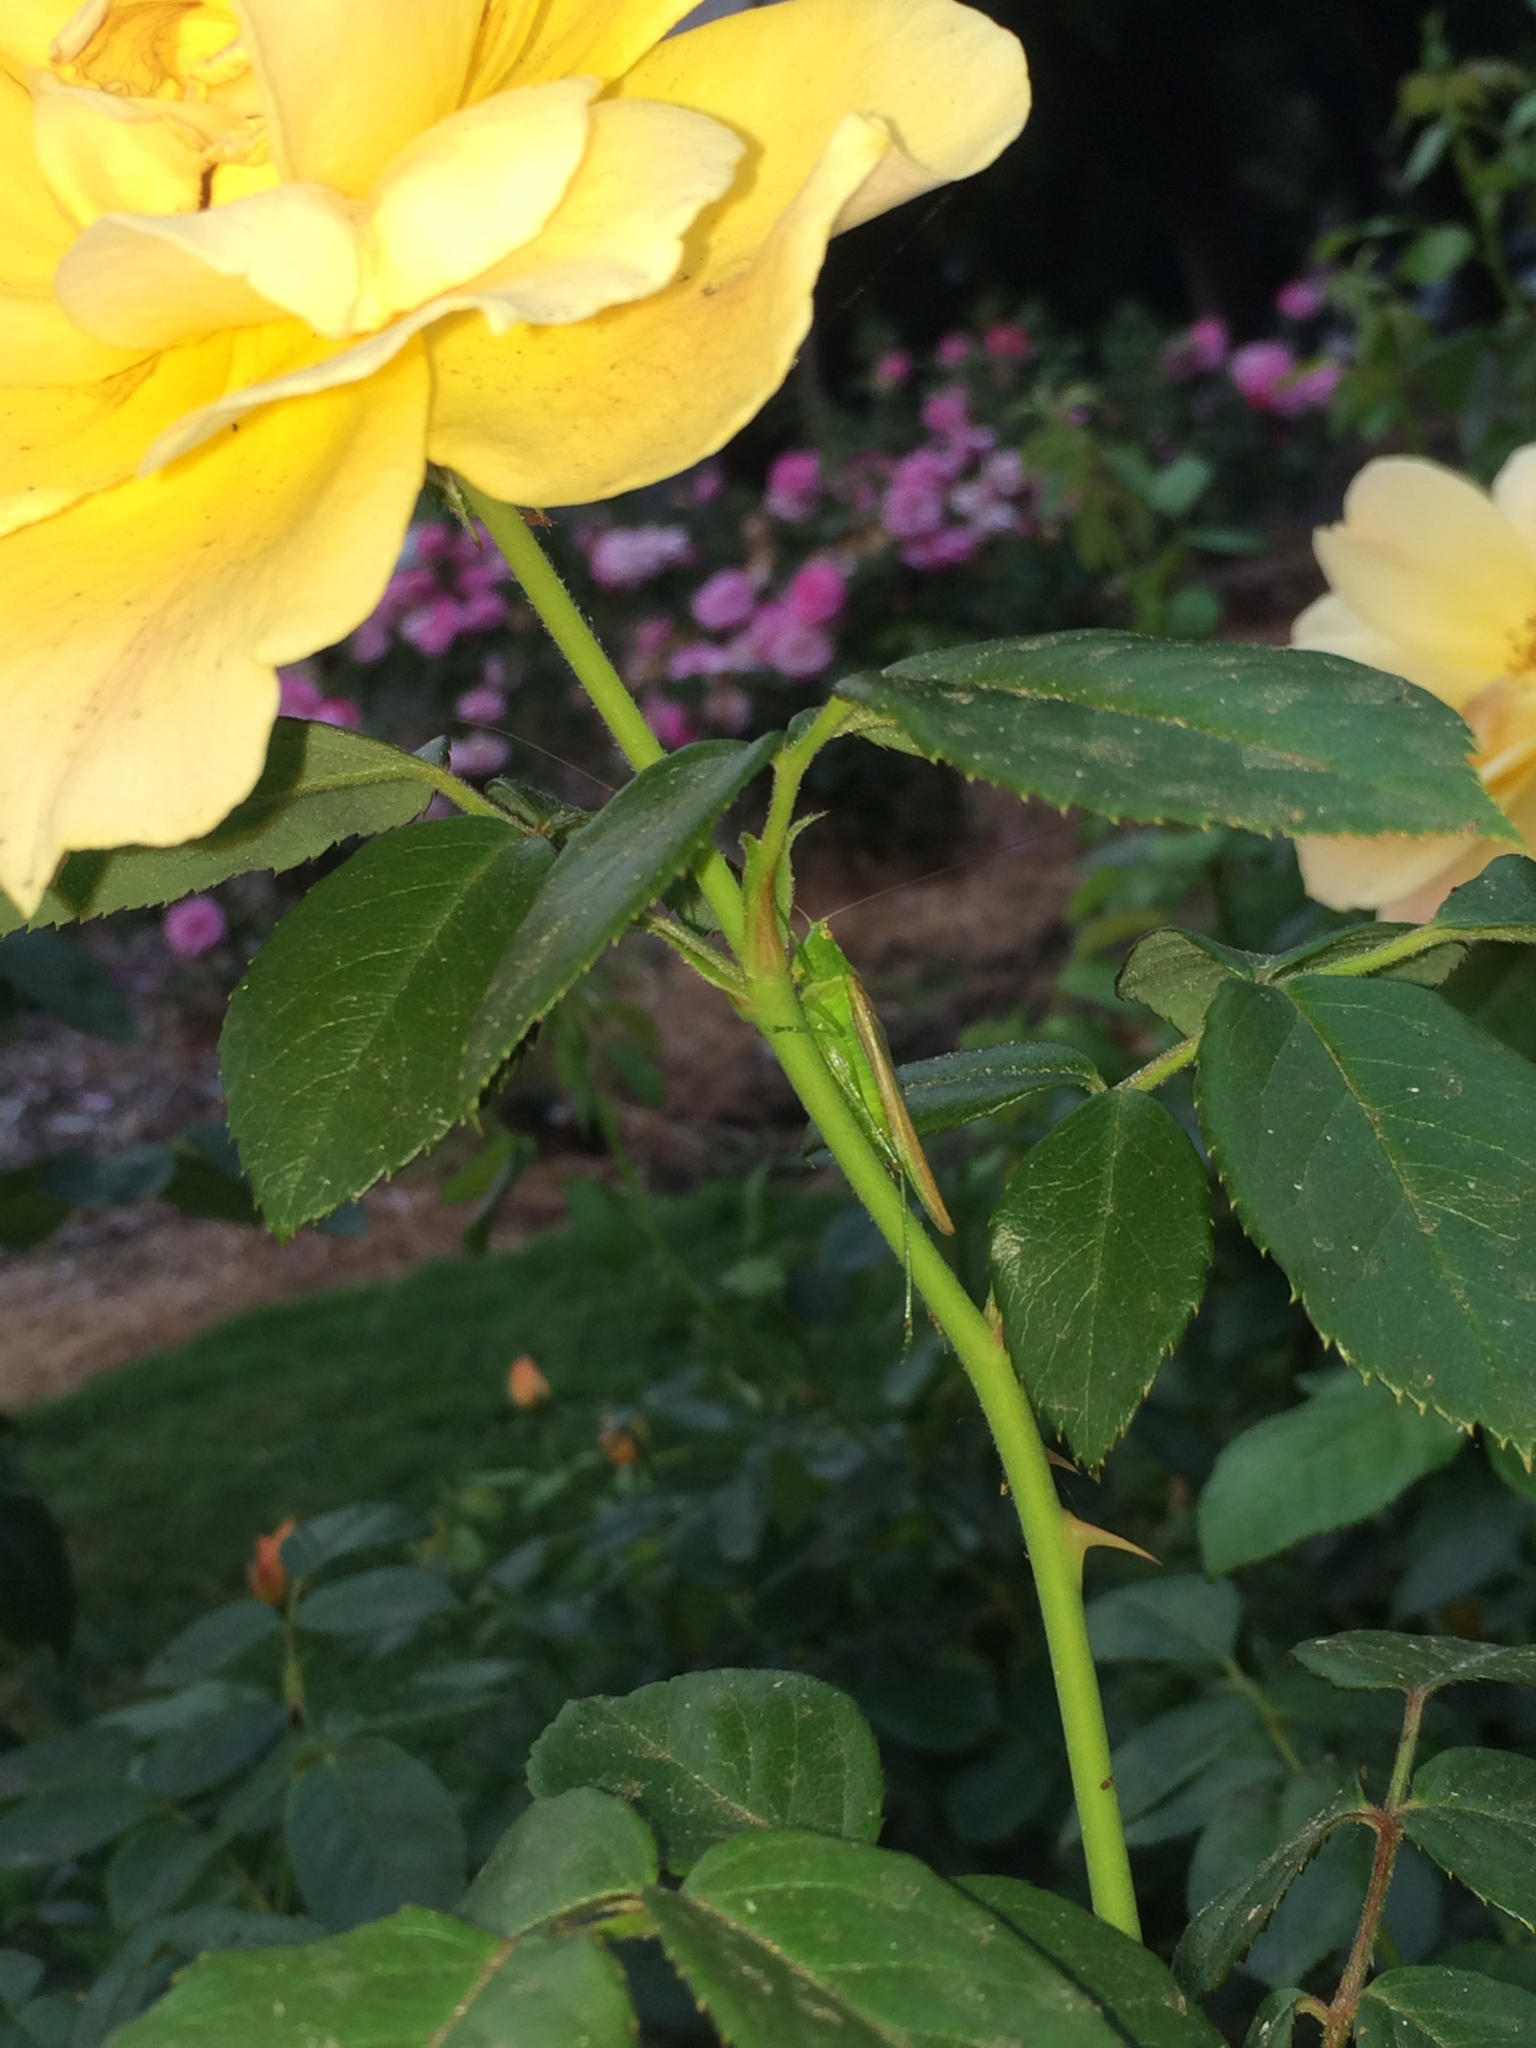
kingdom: Animalia
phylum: Arthropoda
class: Insecta
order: Orthoptera
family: Tettigoniidae
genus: Conocephalus
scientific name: Conocephalus fasciatus
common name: Slender meadow katydid
